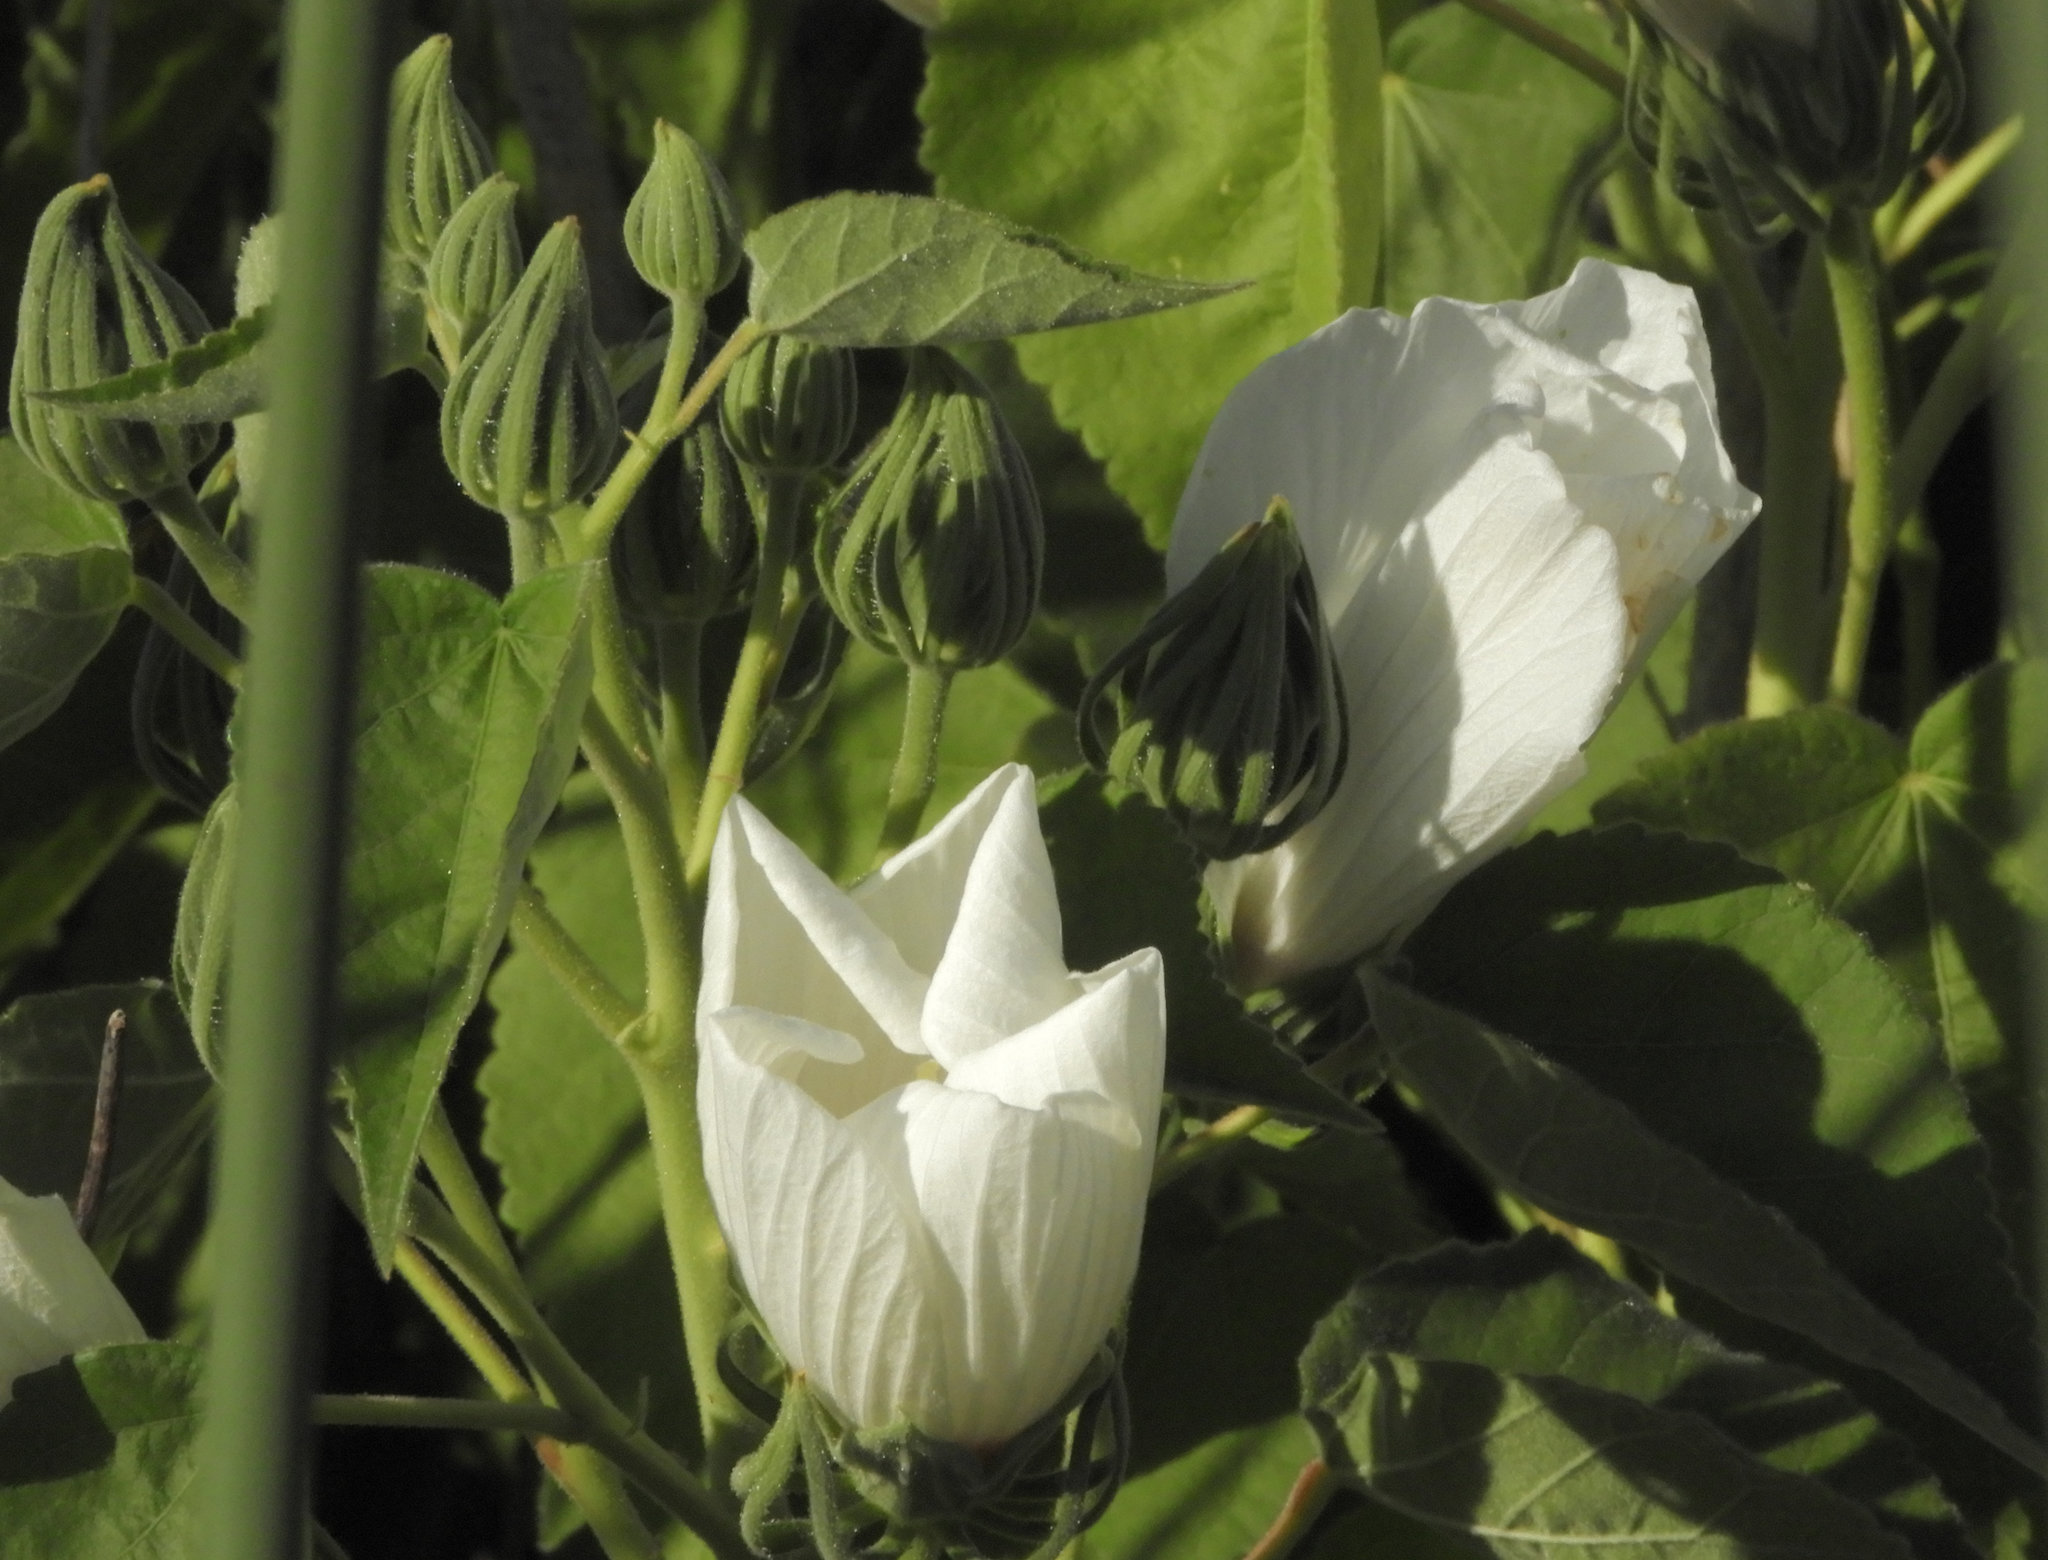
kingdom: Plantae
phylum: Tracheophyta
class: Magnoliopsida
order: Malvales
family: Malvaceae
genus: Hibiscus
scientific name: Hibiscus moscheutos
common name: Common rose-mallow
